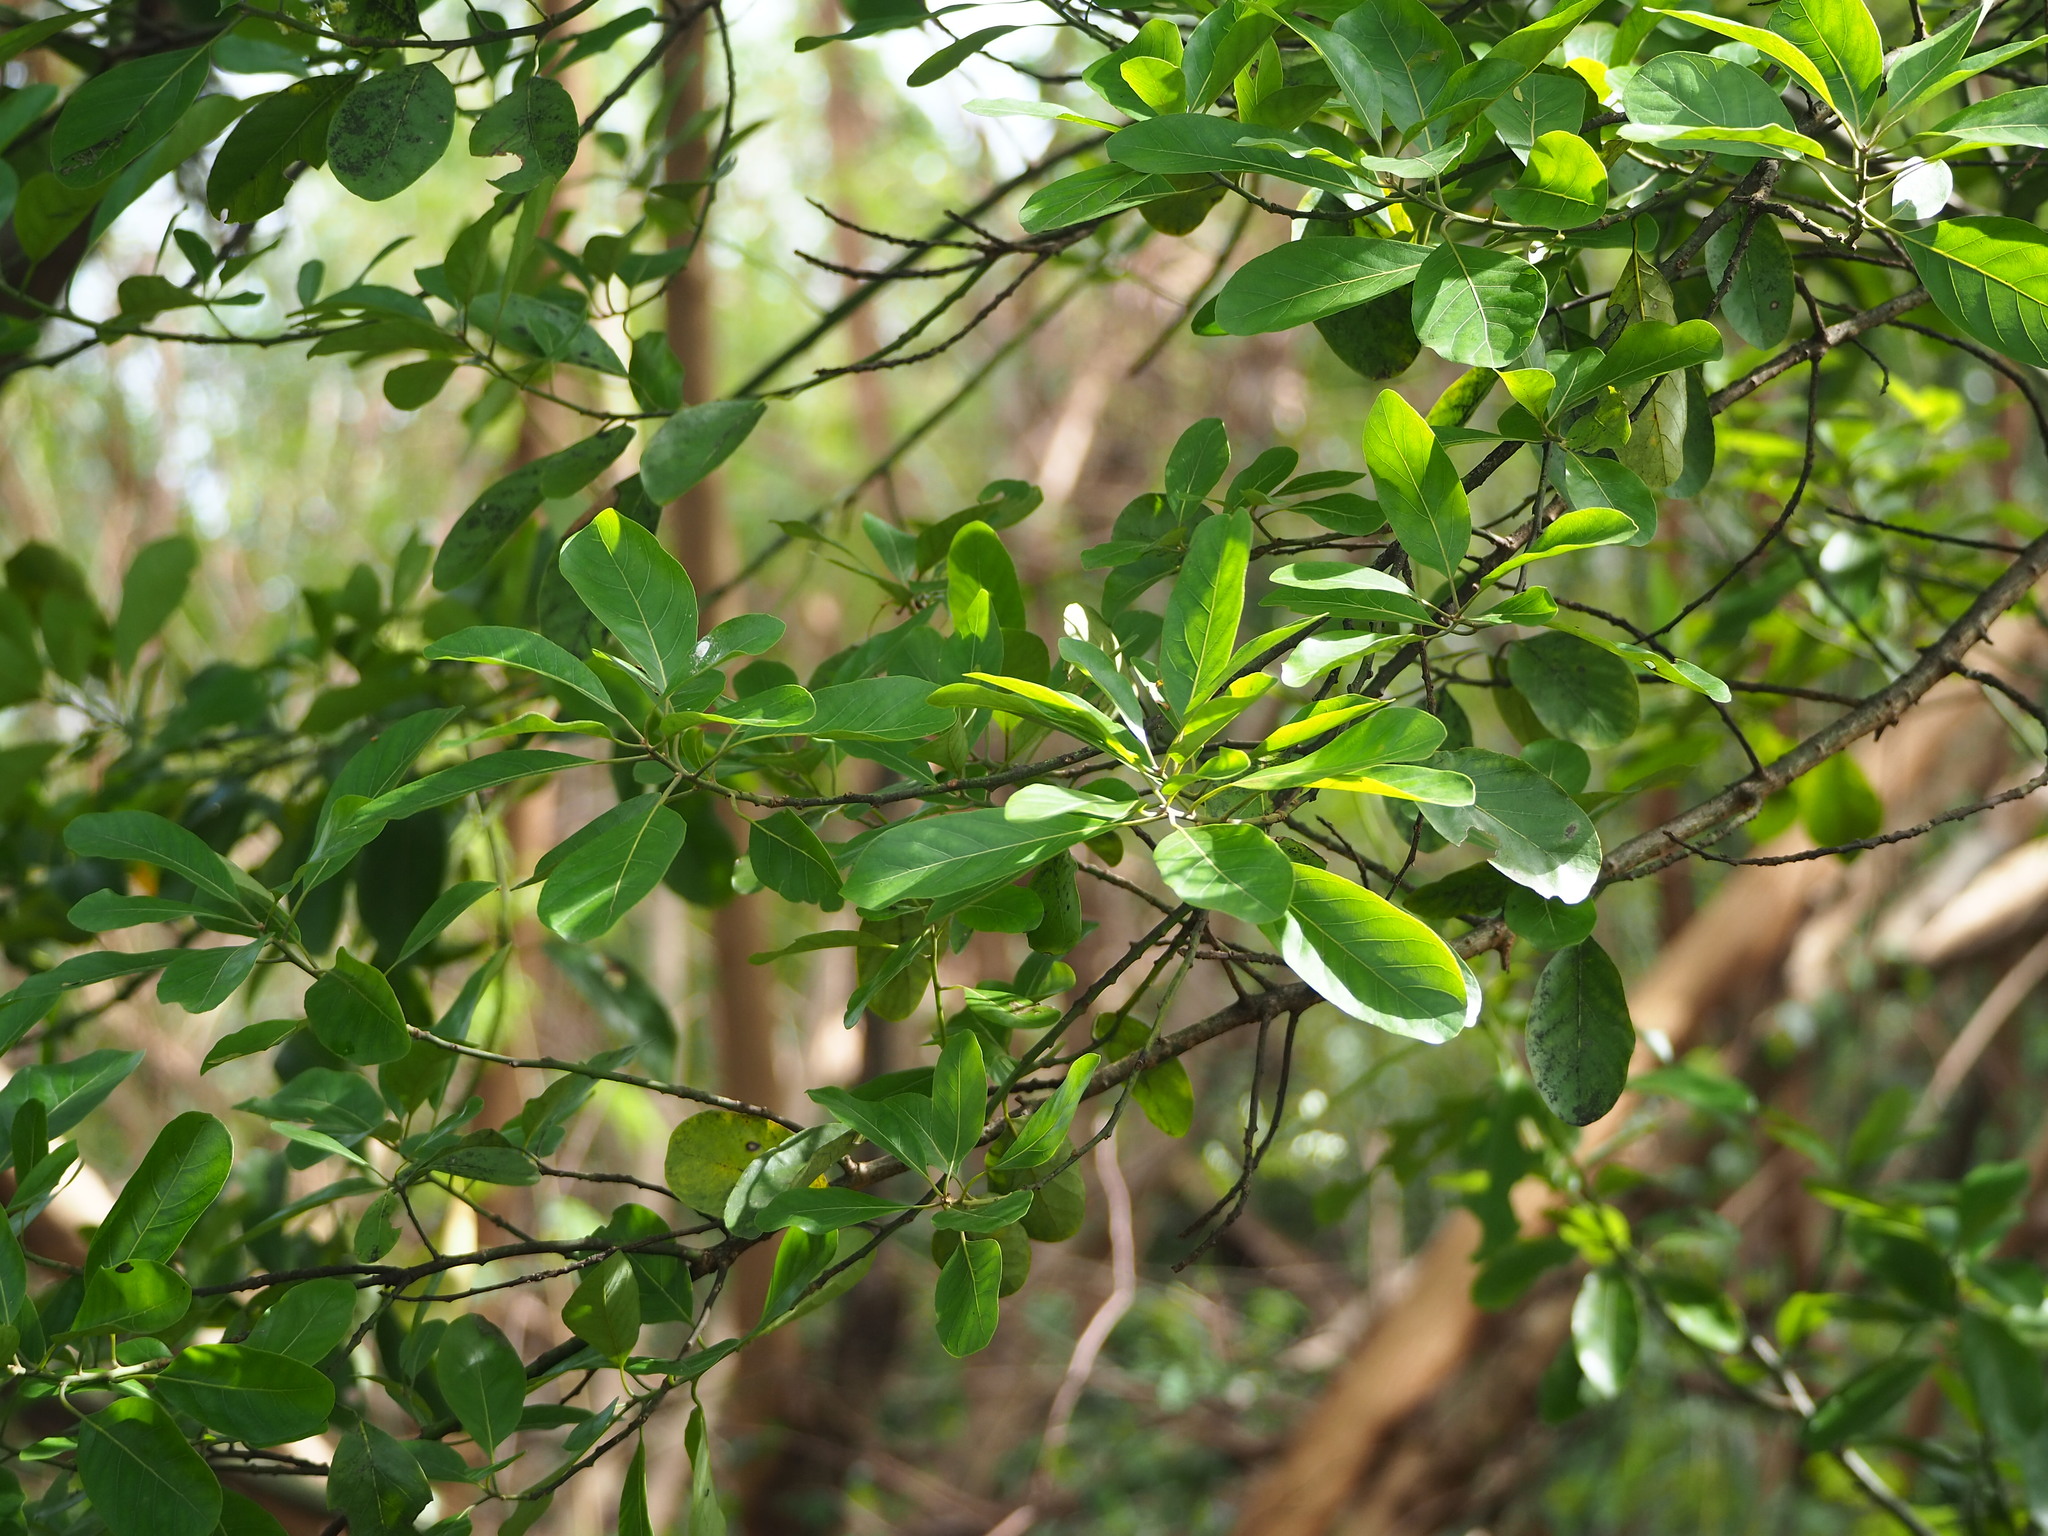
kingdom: Plantae
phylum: Tracheophyta
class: Magnoliopsida
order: Laurales
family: Lauraceae
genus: Litsea
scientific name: Litsea glutinosa
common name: Indian-laurel
